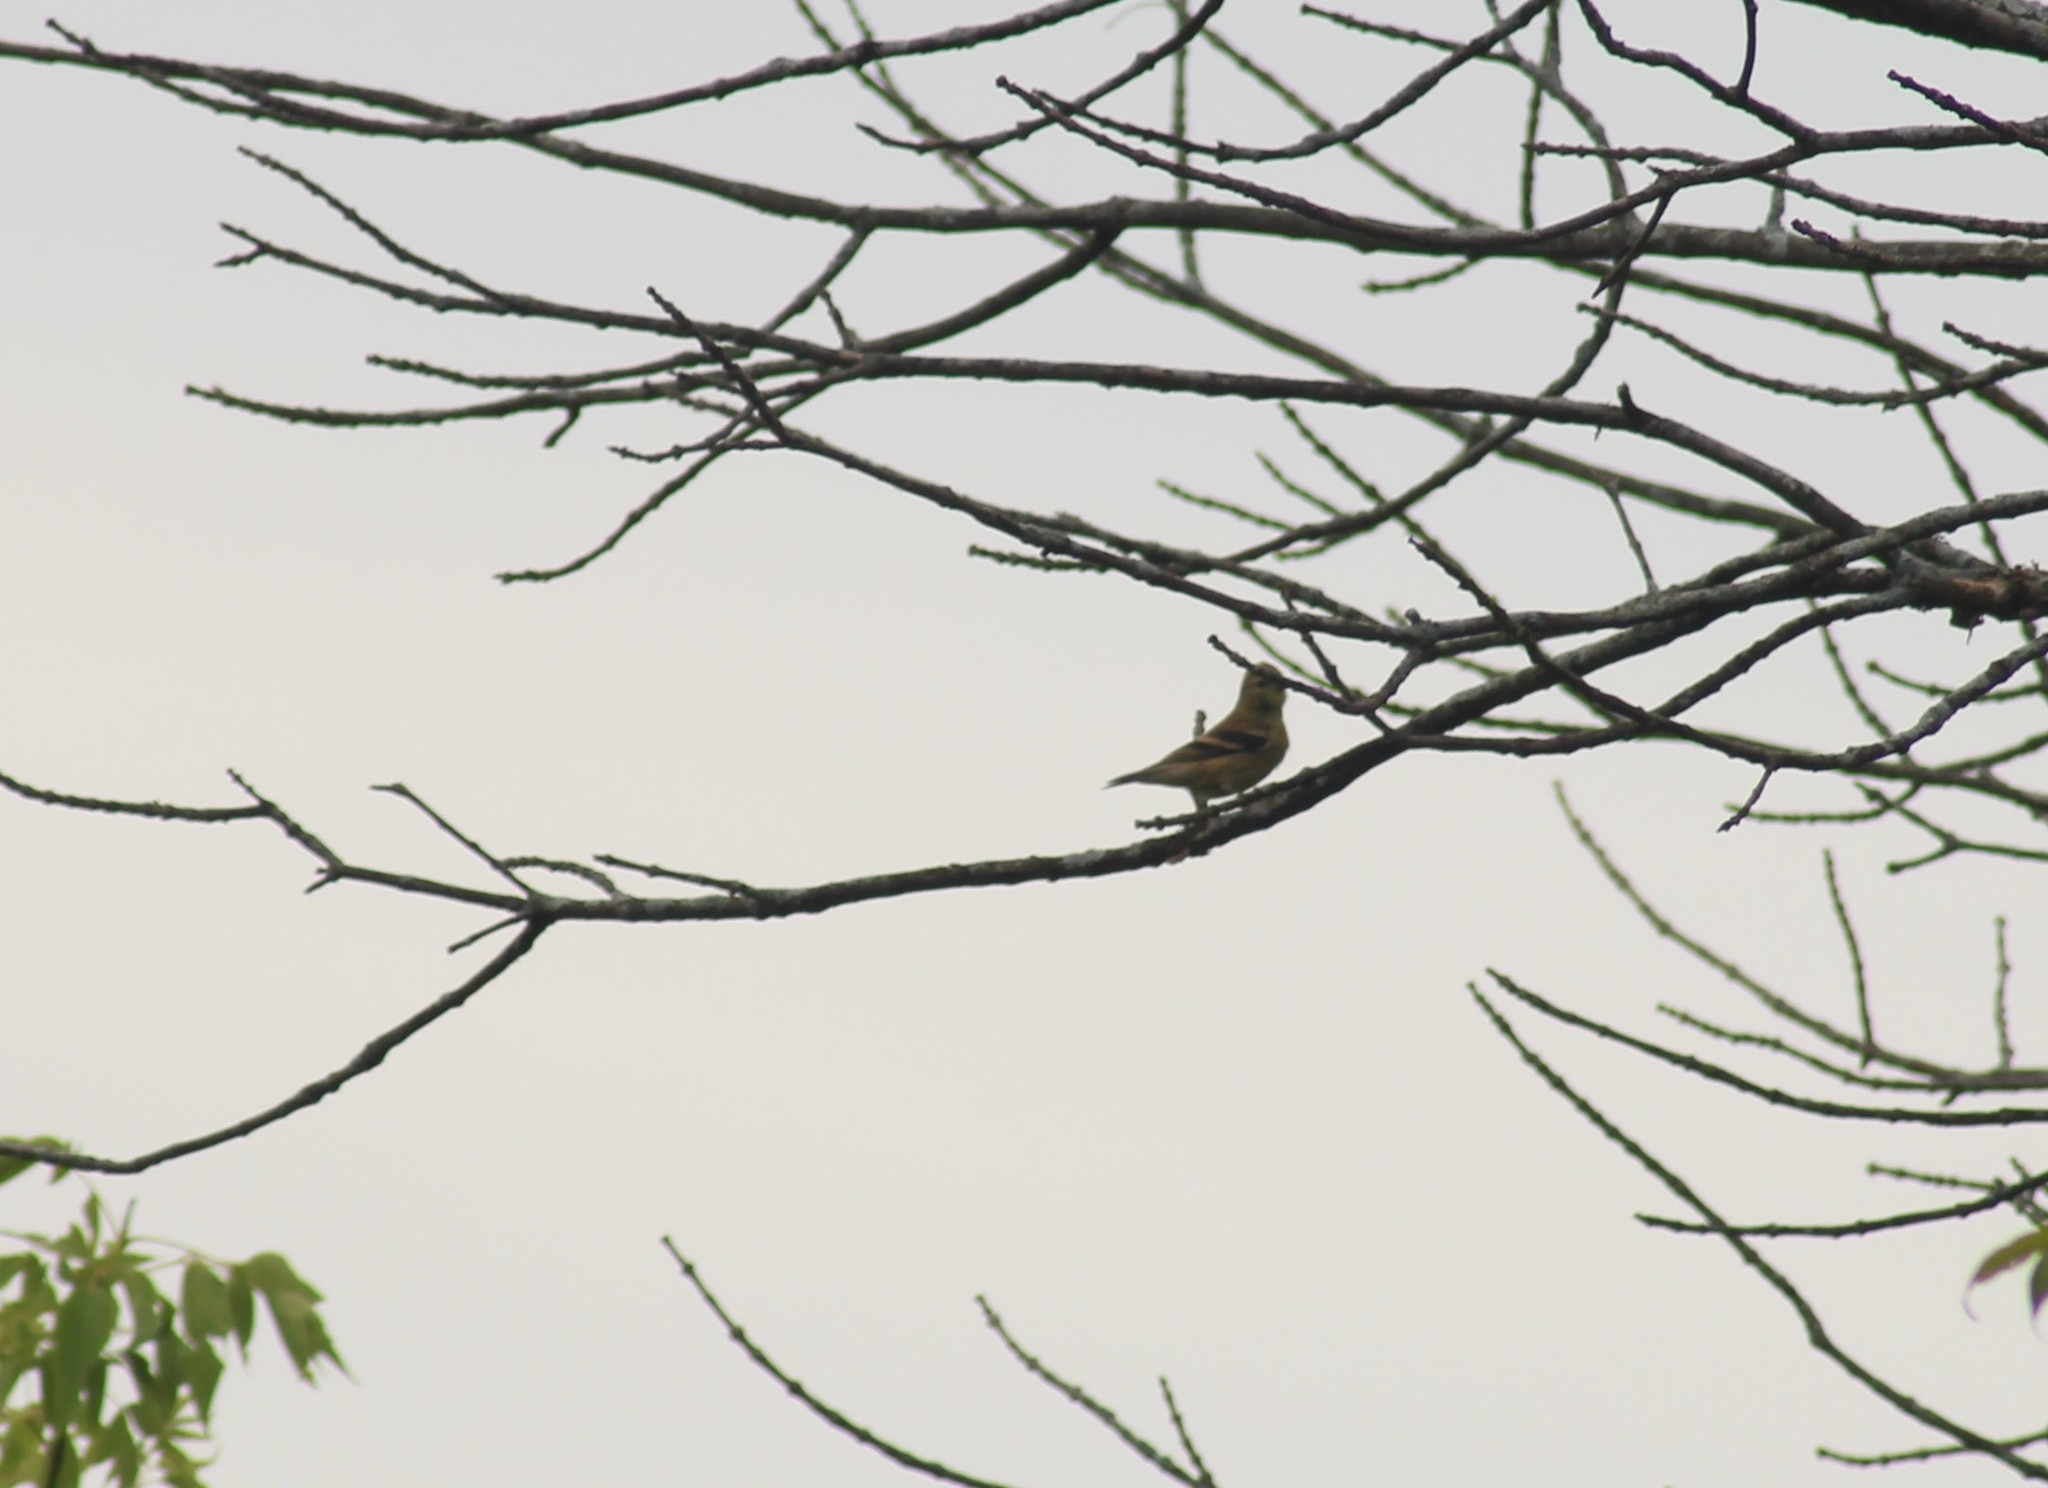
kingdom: Animalia
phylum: Chordata
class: Aves
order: Passeriformes
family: Fringillidae
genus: Spinus
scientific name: Spinus tristis
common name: American goldfinch
